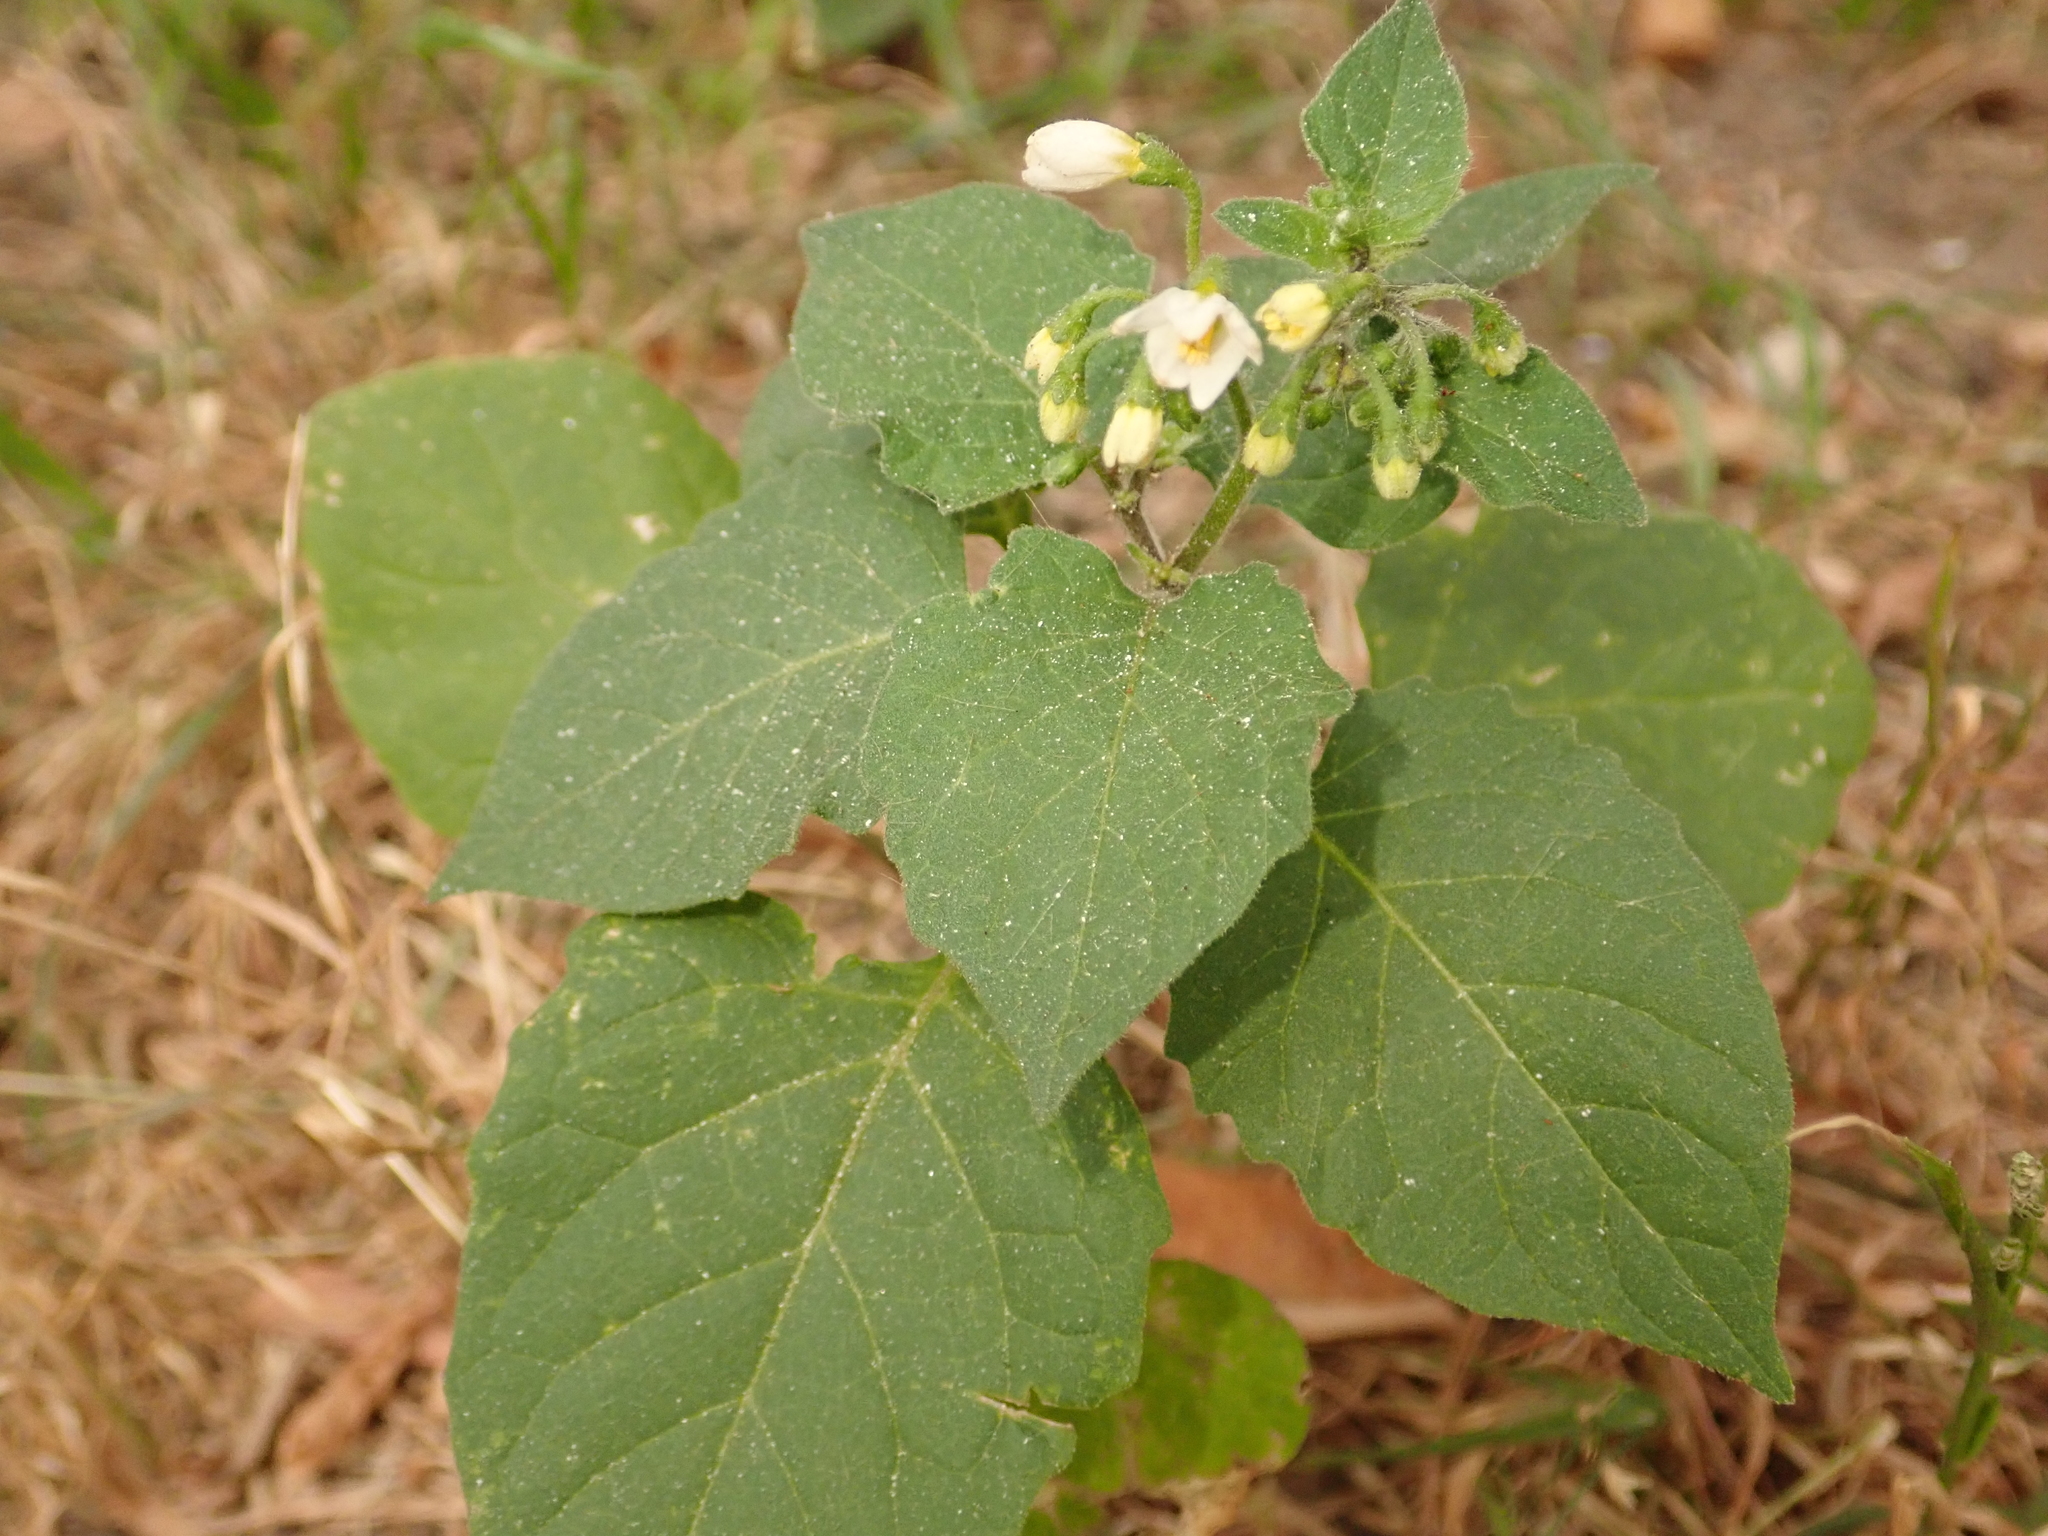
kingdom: Plantae
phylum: Tracheophyta
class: Magnoliopsida
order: Solanales
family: Solanaceae
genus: Solanum
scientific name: Solanum nigrum
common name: Black nightshade
